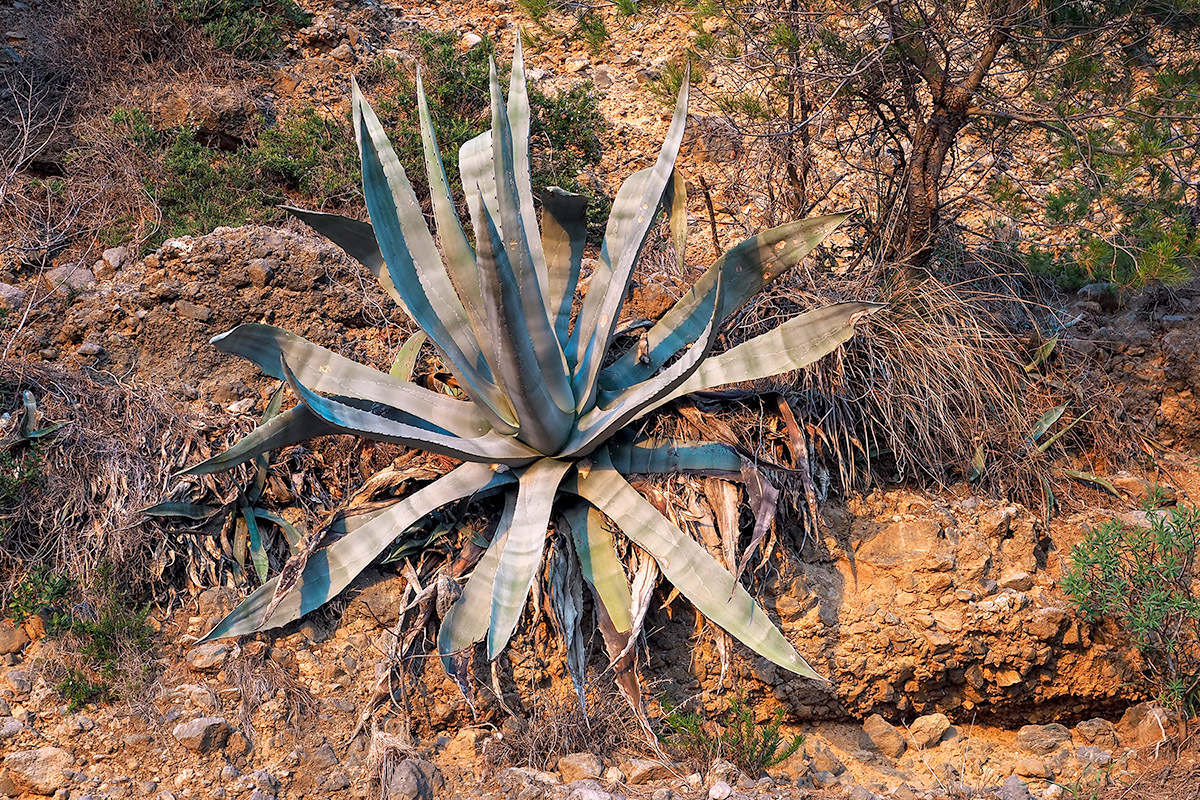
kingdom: Plantae
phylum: Tracheophyta
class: Liliopsida
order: Asparagales
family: Asparagaceae
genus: Agave
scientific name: Agave americana
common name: Centuryplant
